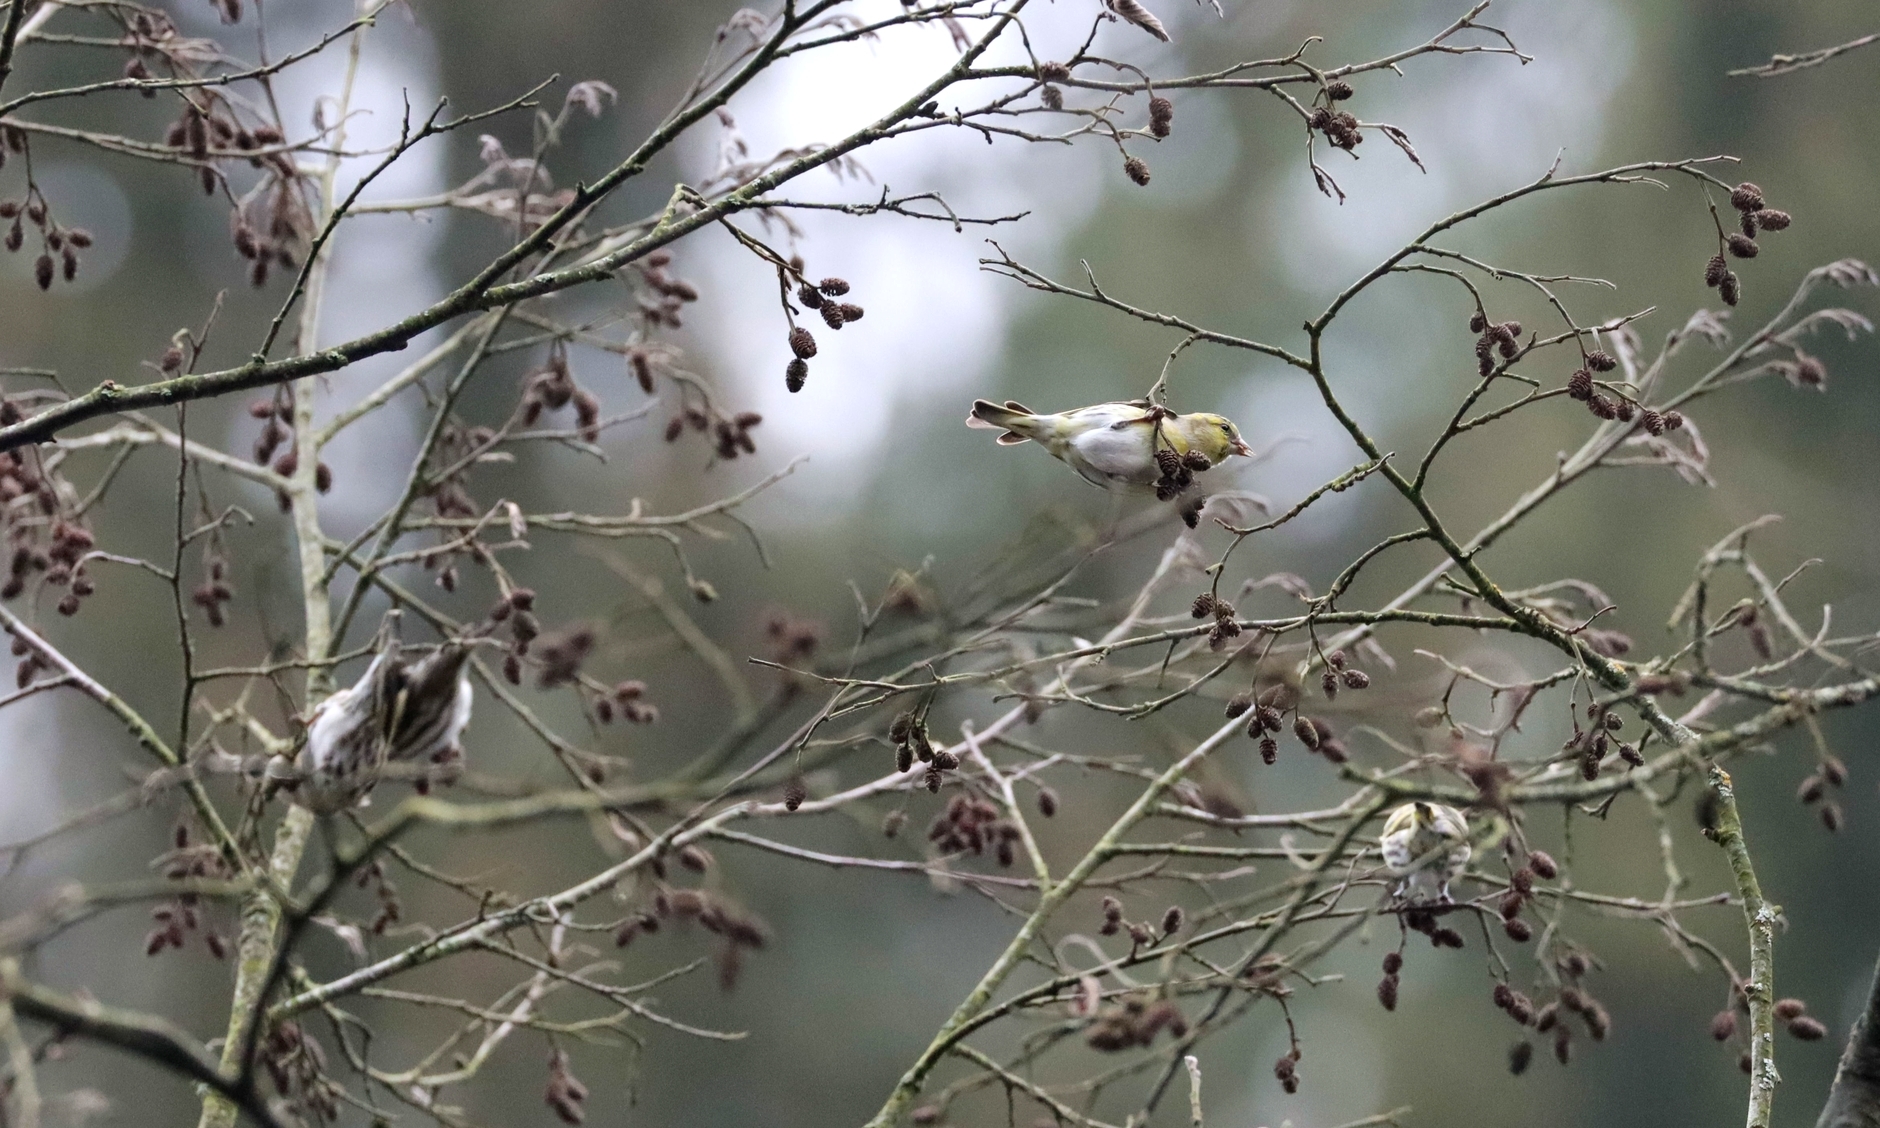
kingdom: Animalia
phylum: Chordata
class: Aves
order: Passeriformes
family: Fringillidae
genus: Spinus
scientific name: Spinus spinus
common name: Eurasian siskin
